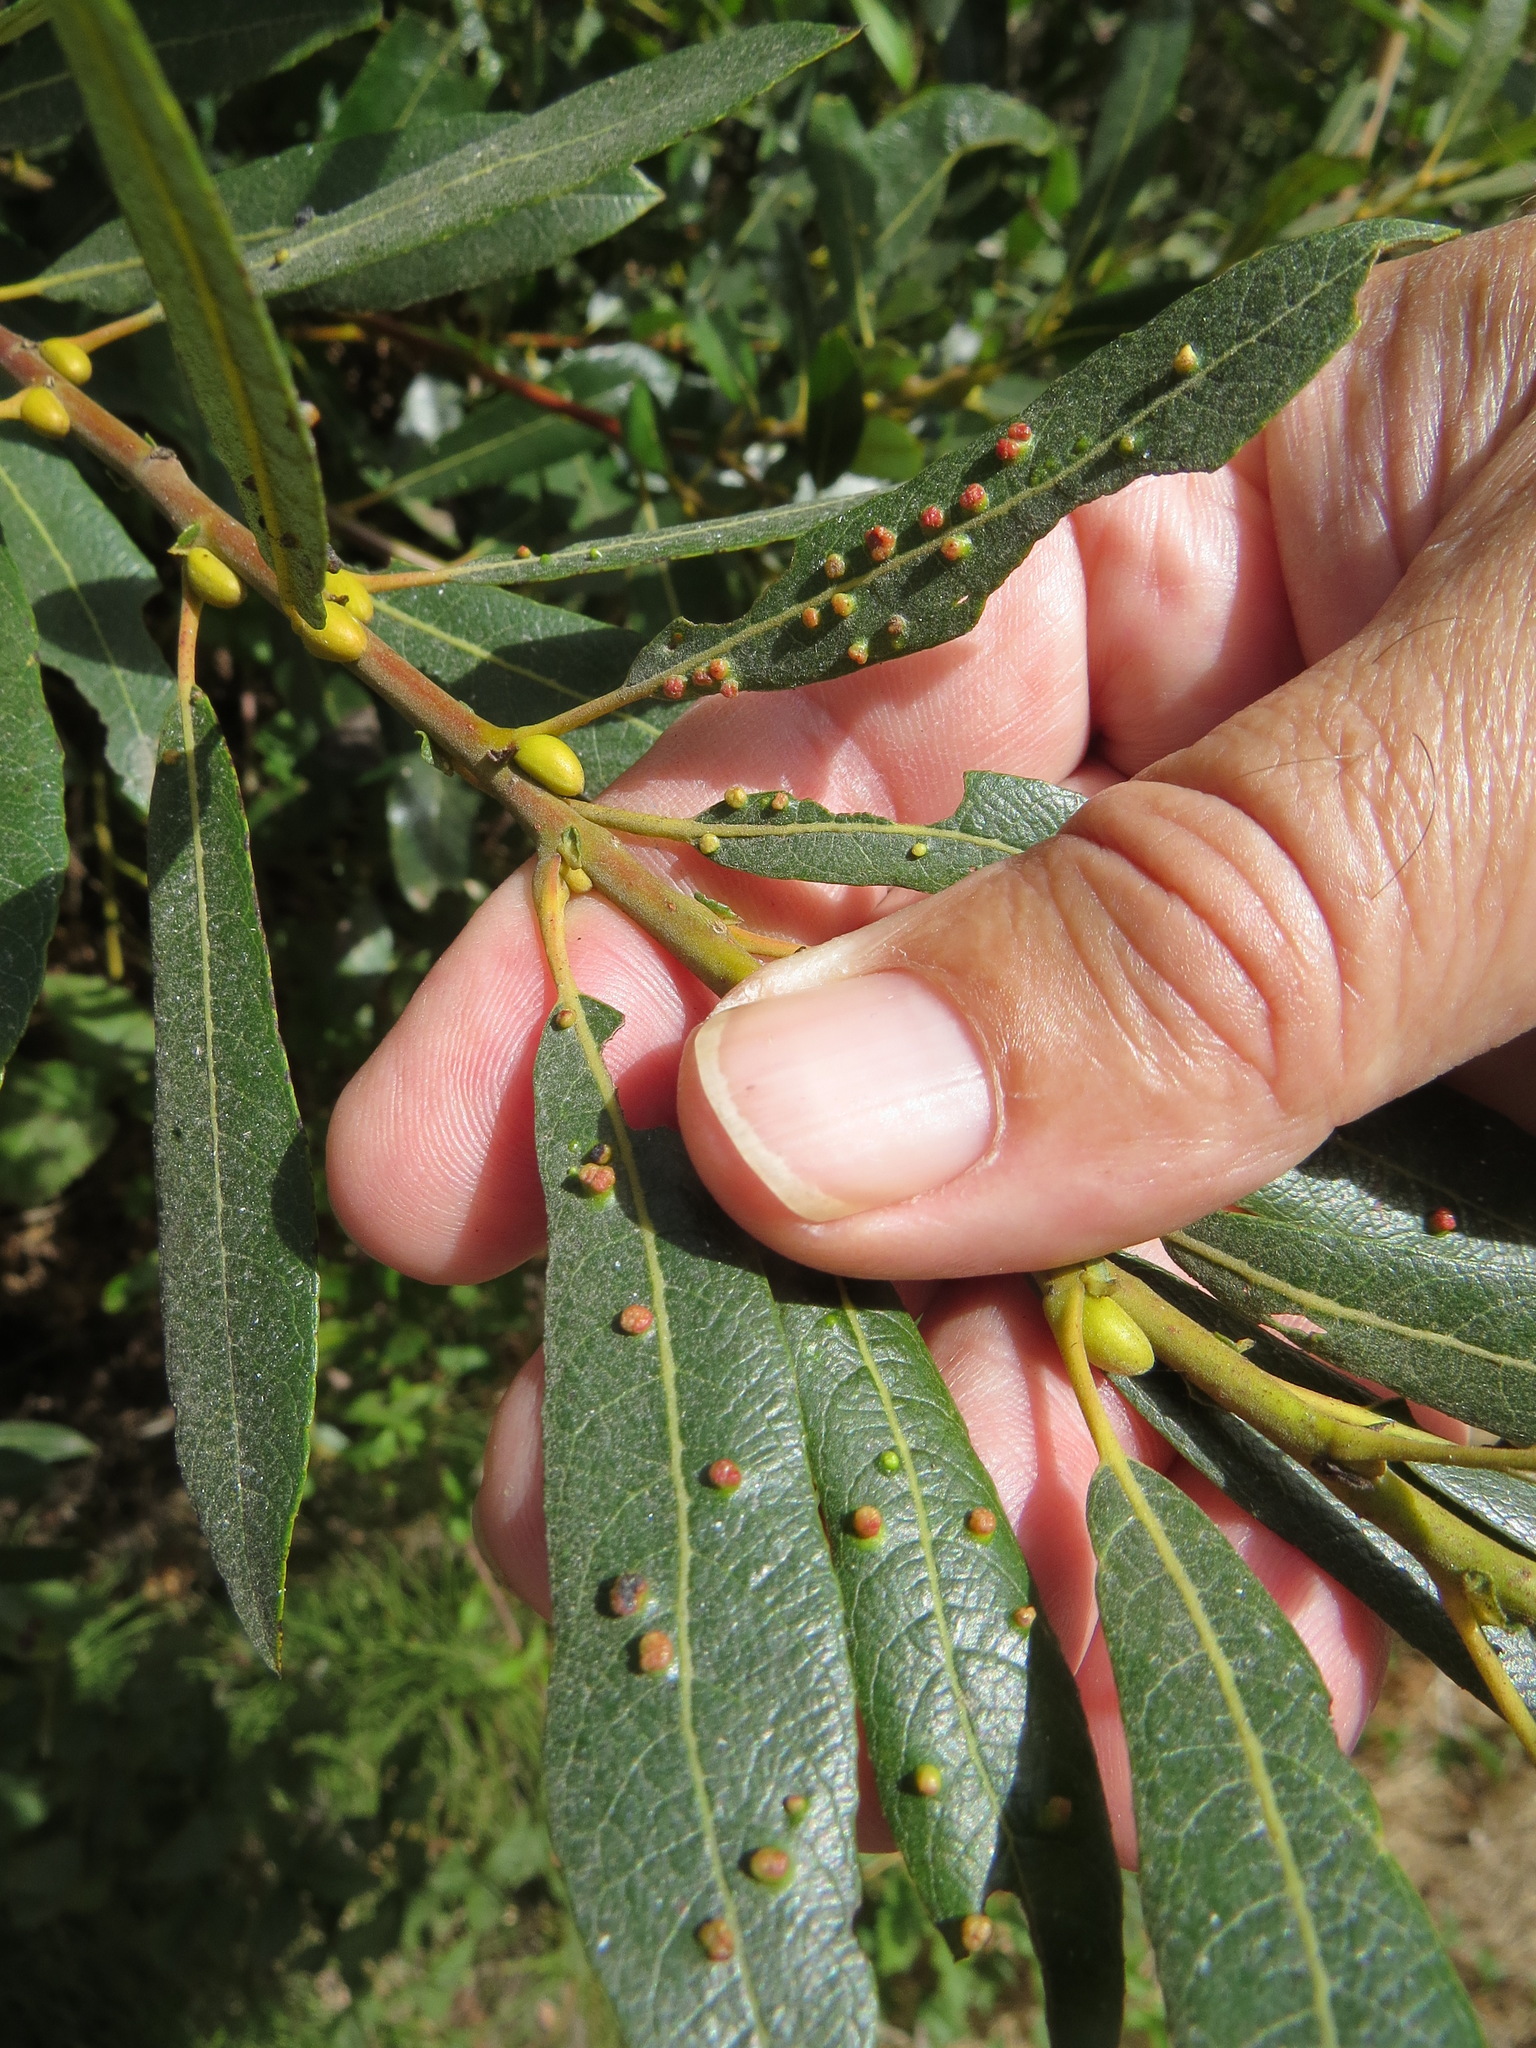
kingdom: Animalia
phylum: Arthropoda
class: Arachnida
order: Trombidiformes
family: Eriophyidae
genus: Aculus
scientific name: Aculus tetanothrix
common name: Willow bead gall mite
